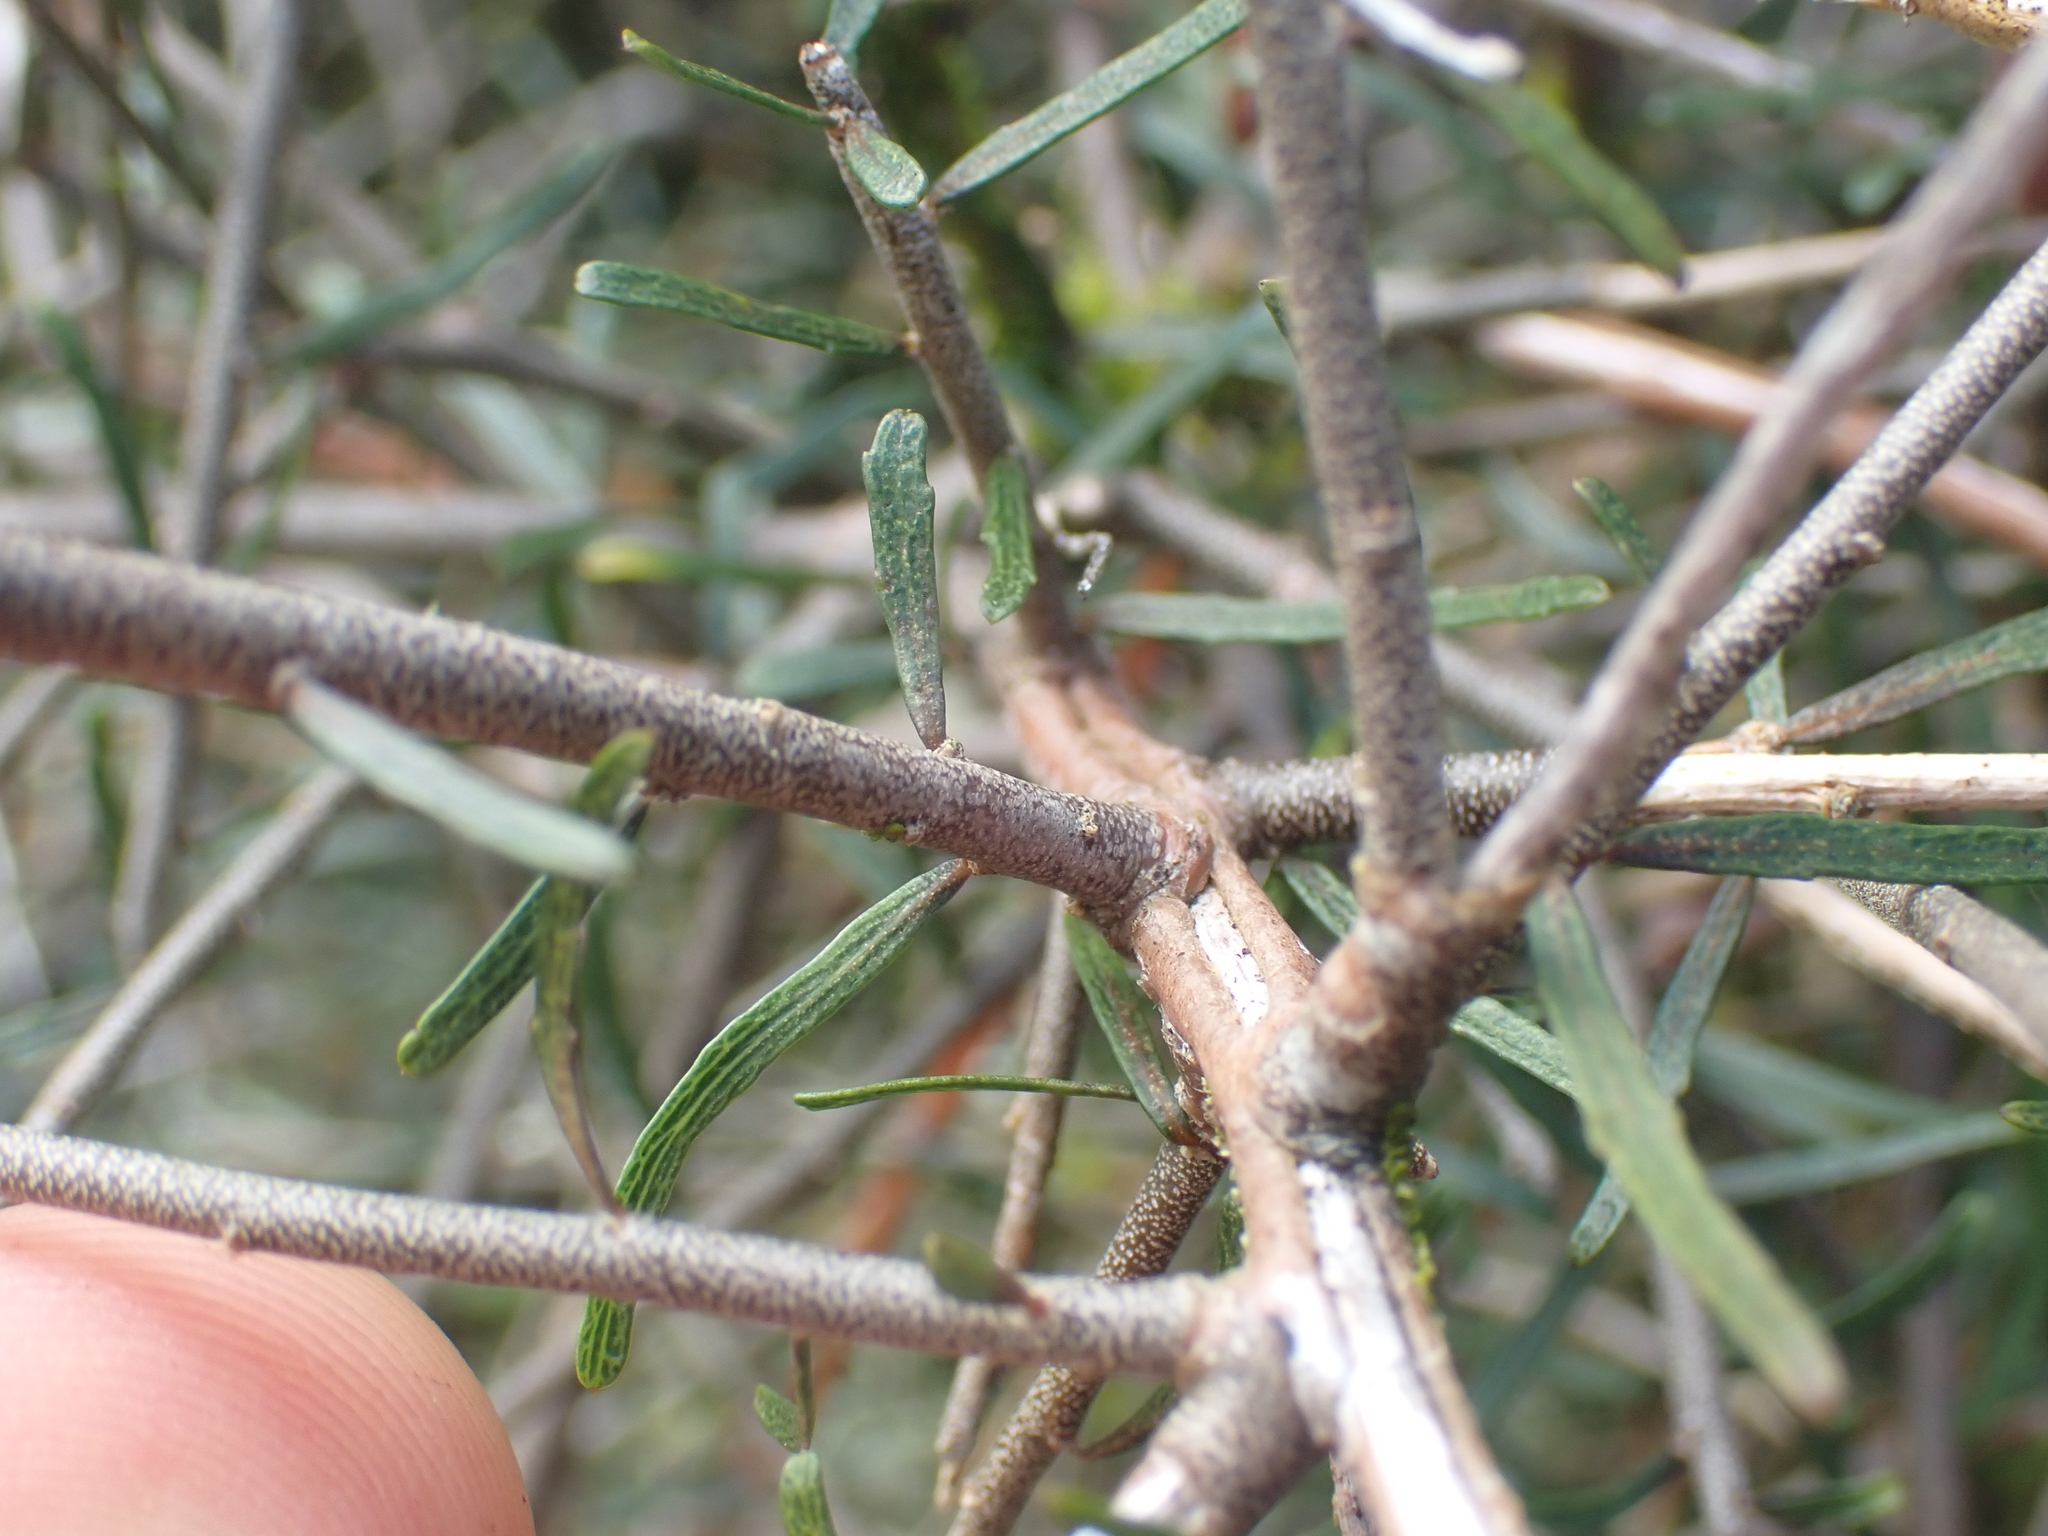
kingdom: Plantae
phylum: Tracheophyta
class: Magnoliopsida
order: Malpighiales
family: Violaceae
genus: Melicytus
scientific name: Melicytus flexuosus
